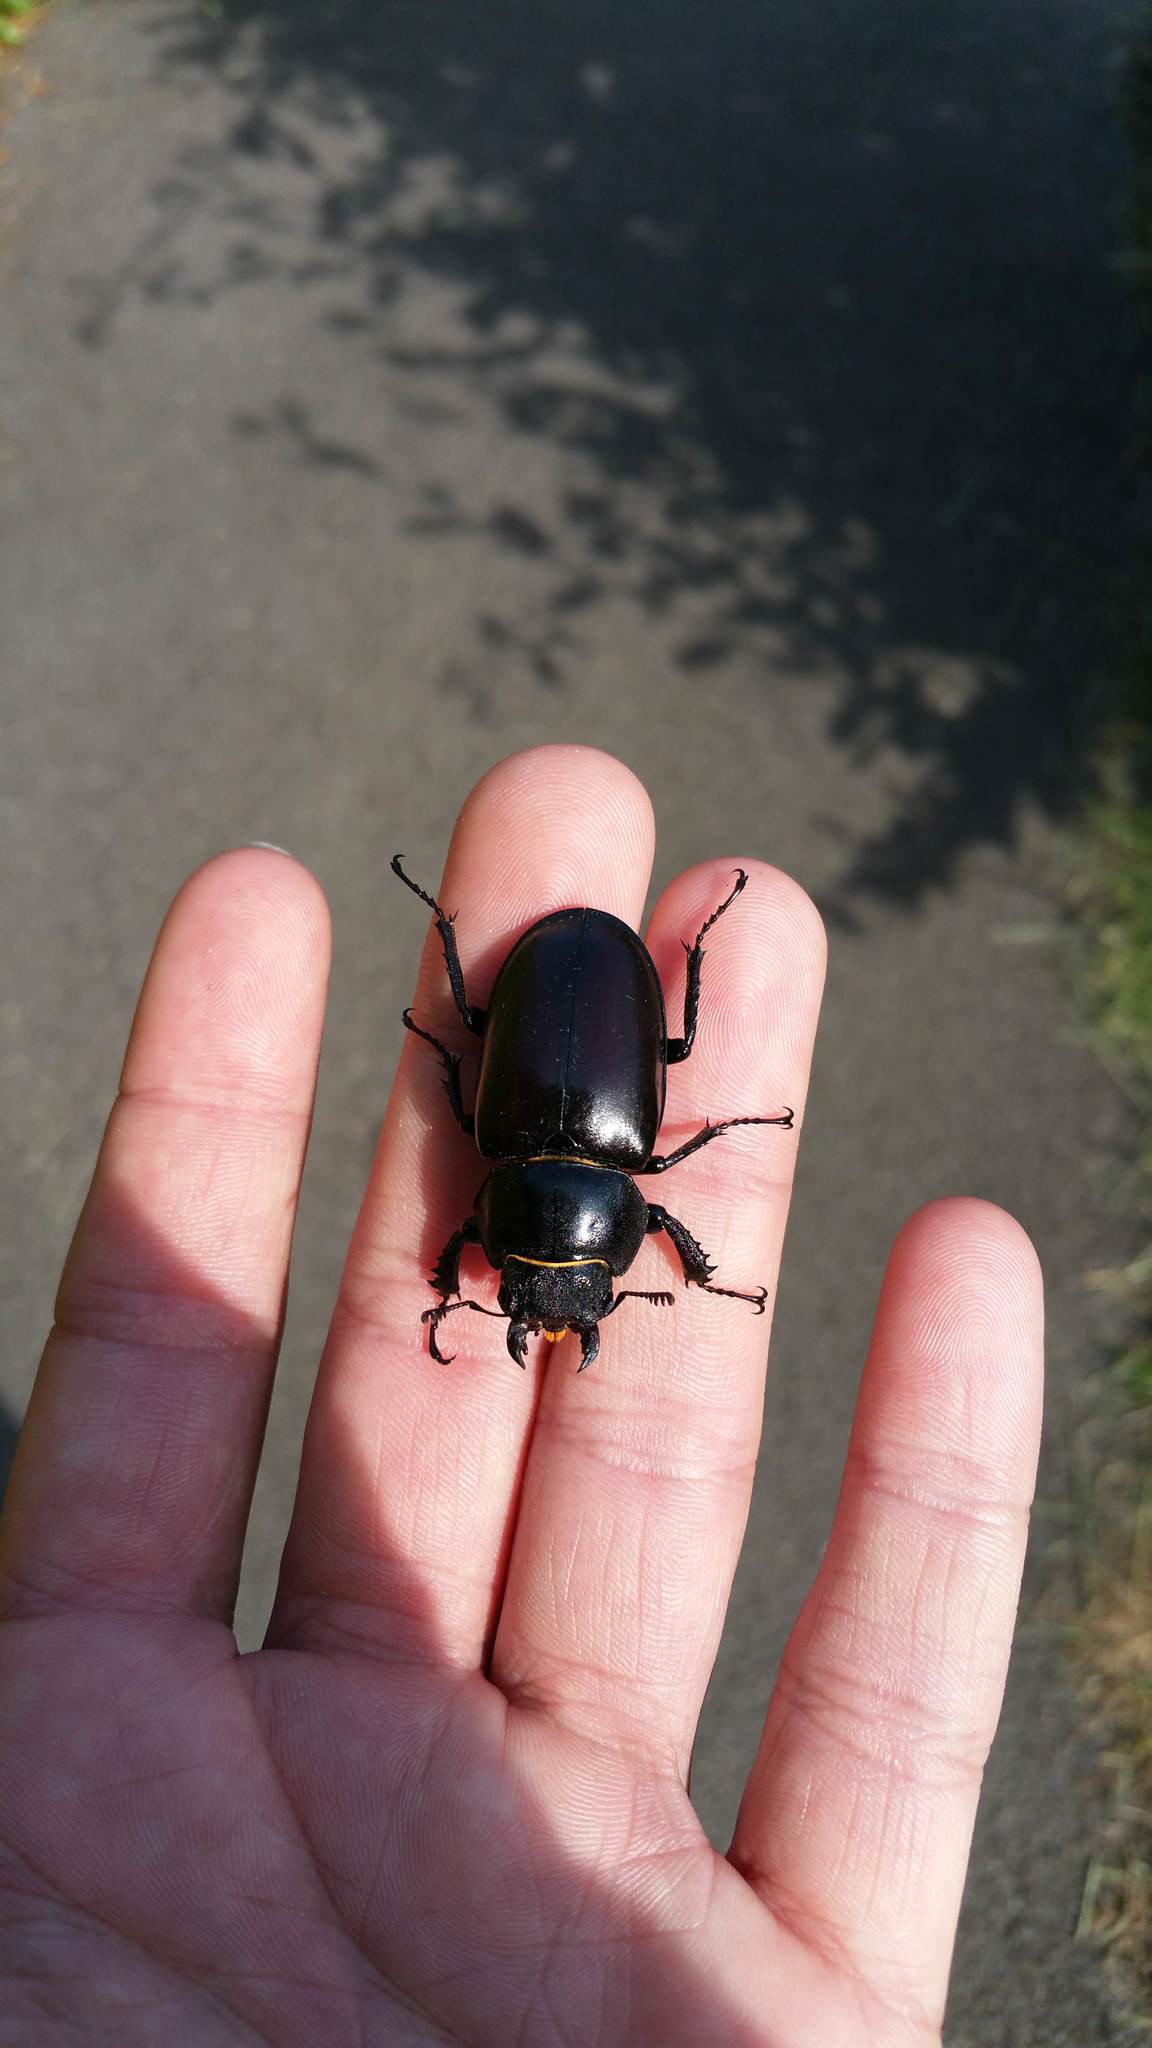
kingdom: Animalia
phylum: Arthropoda
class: Insecta
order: Coleoptera
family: Lucanidae
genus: Lucanus
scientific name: Lucanus cervus
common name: Stag beetle
